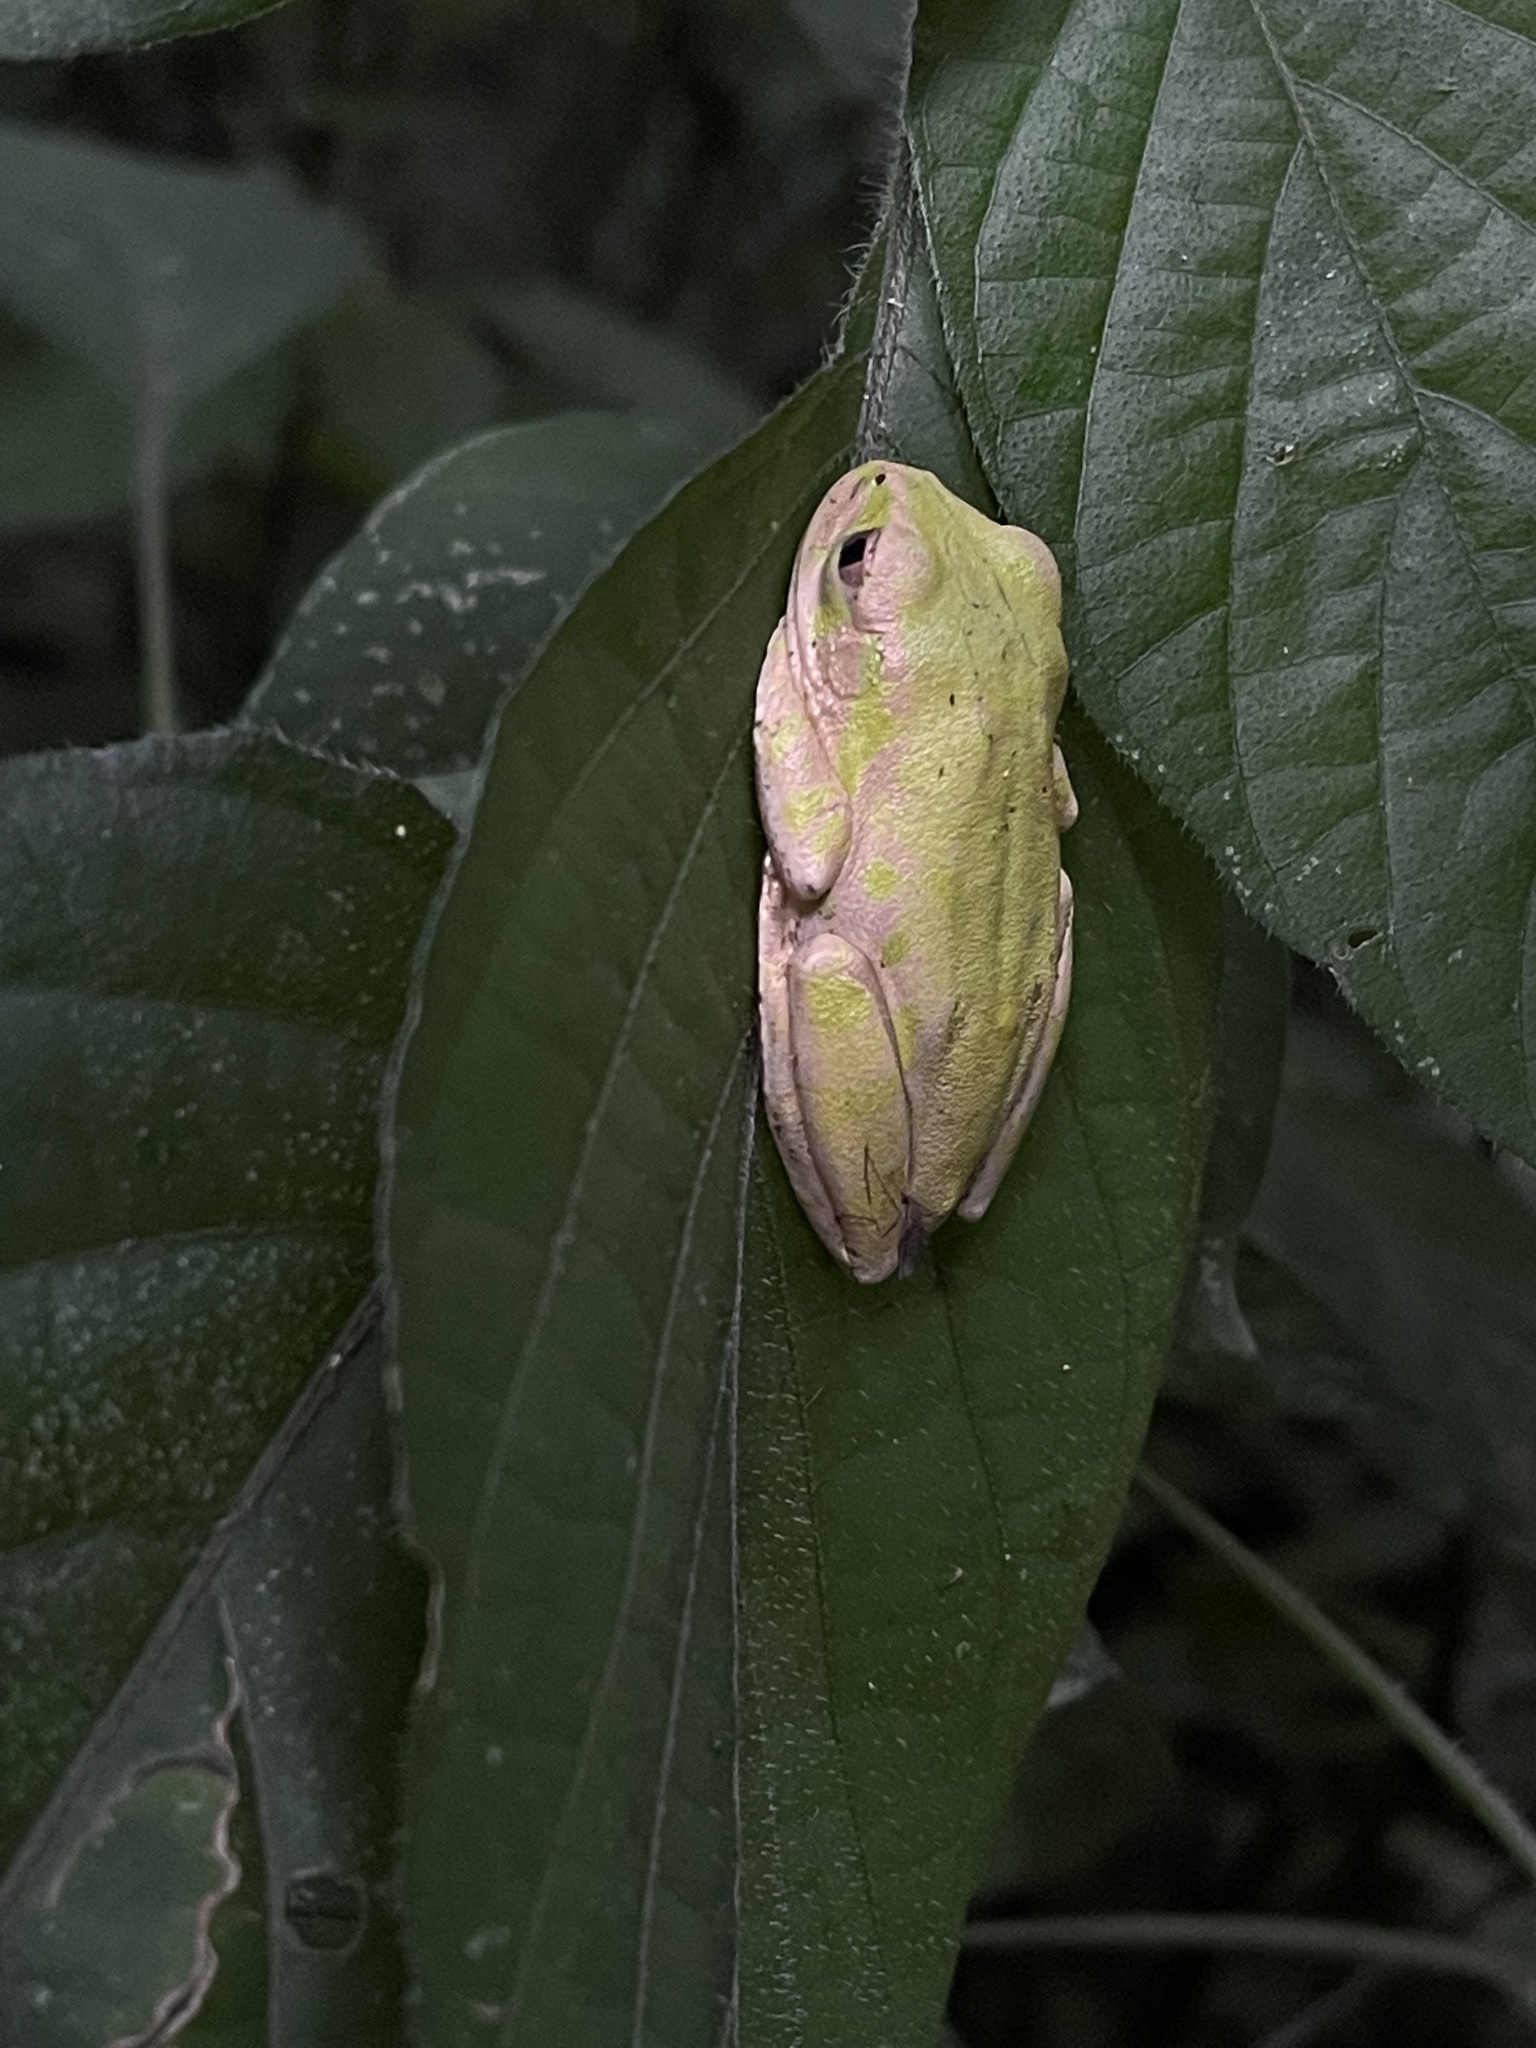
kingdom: Animalia
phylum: Chordata
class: Amphibia
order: Anura
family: Arthroleptidae
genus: Leptopelis
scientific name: Leptopelis natalensis
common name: Natal tree frog
